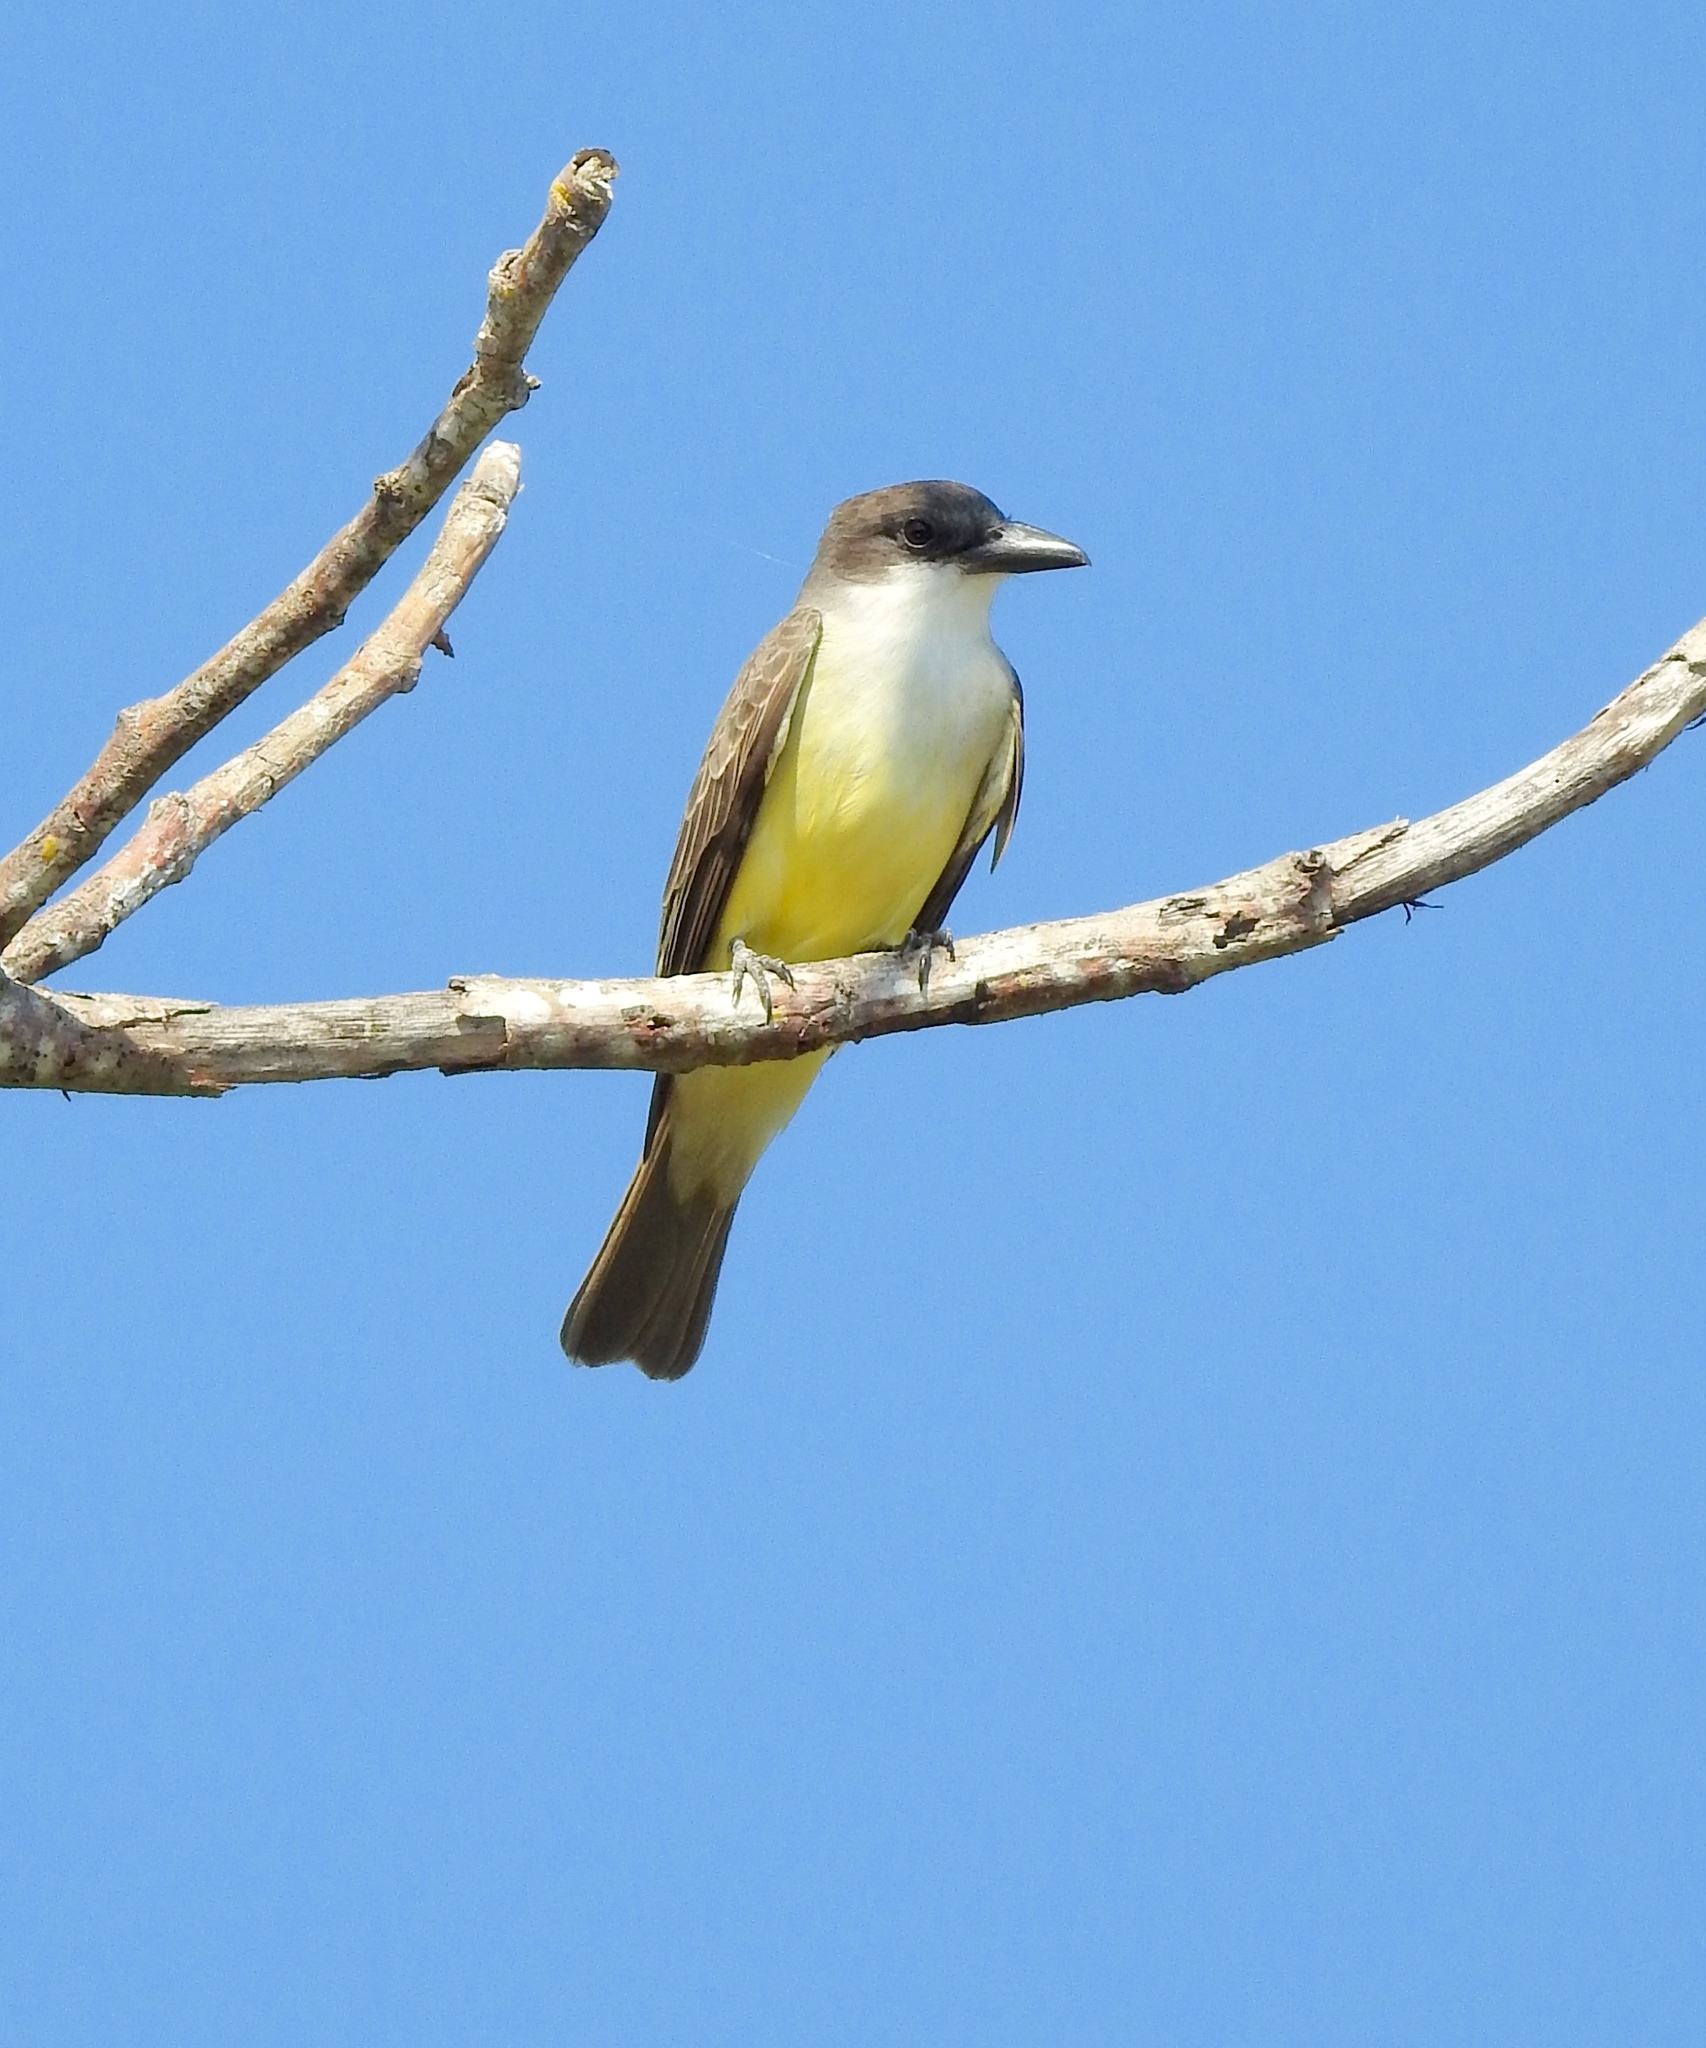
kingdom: Animalia
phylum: Chordata
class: Aves
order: Passeriformes
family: Tyrannidae
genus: Tyrannus
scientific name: Tyrannus crassirostris
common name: Thick-billed kingbird
